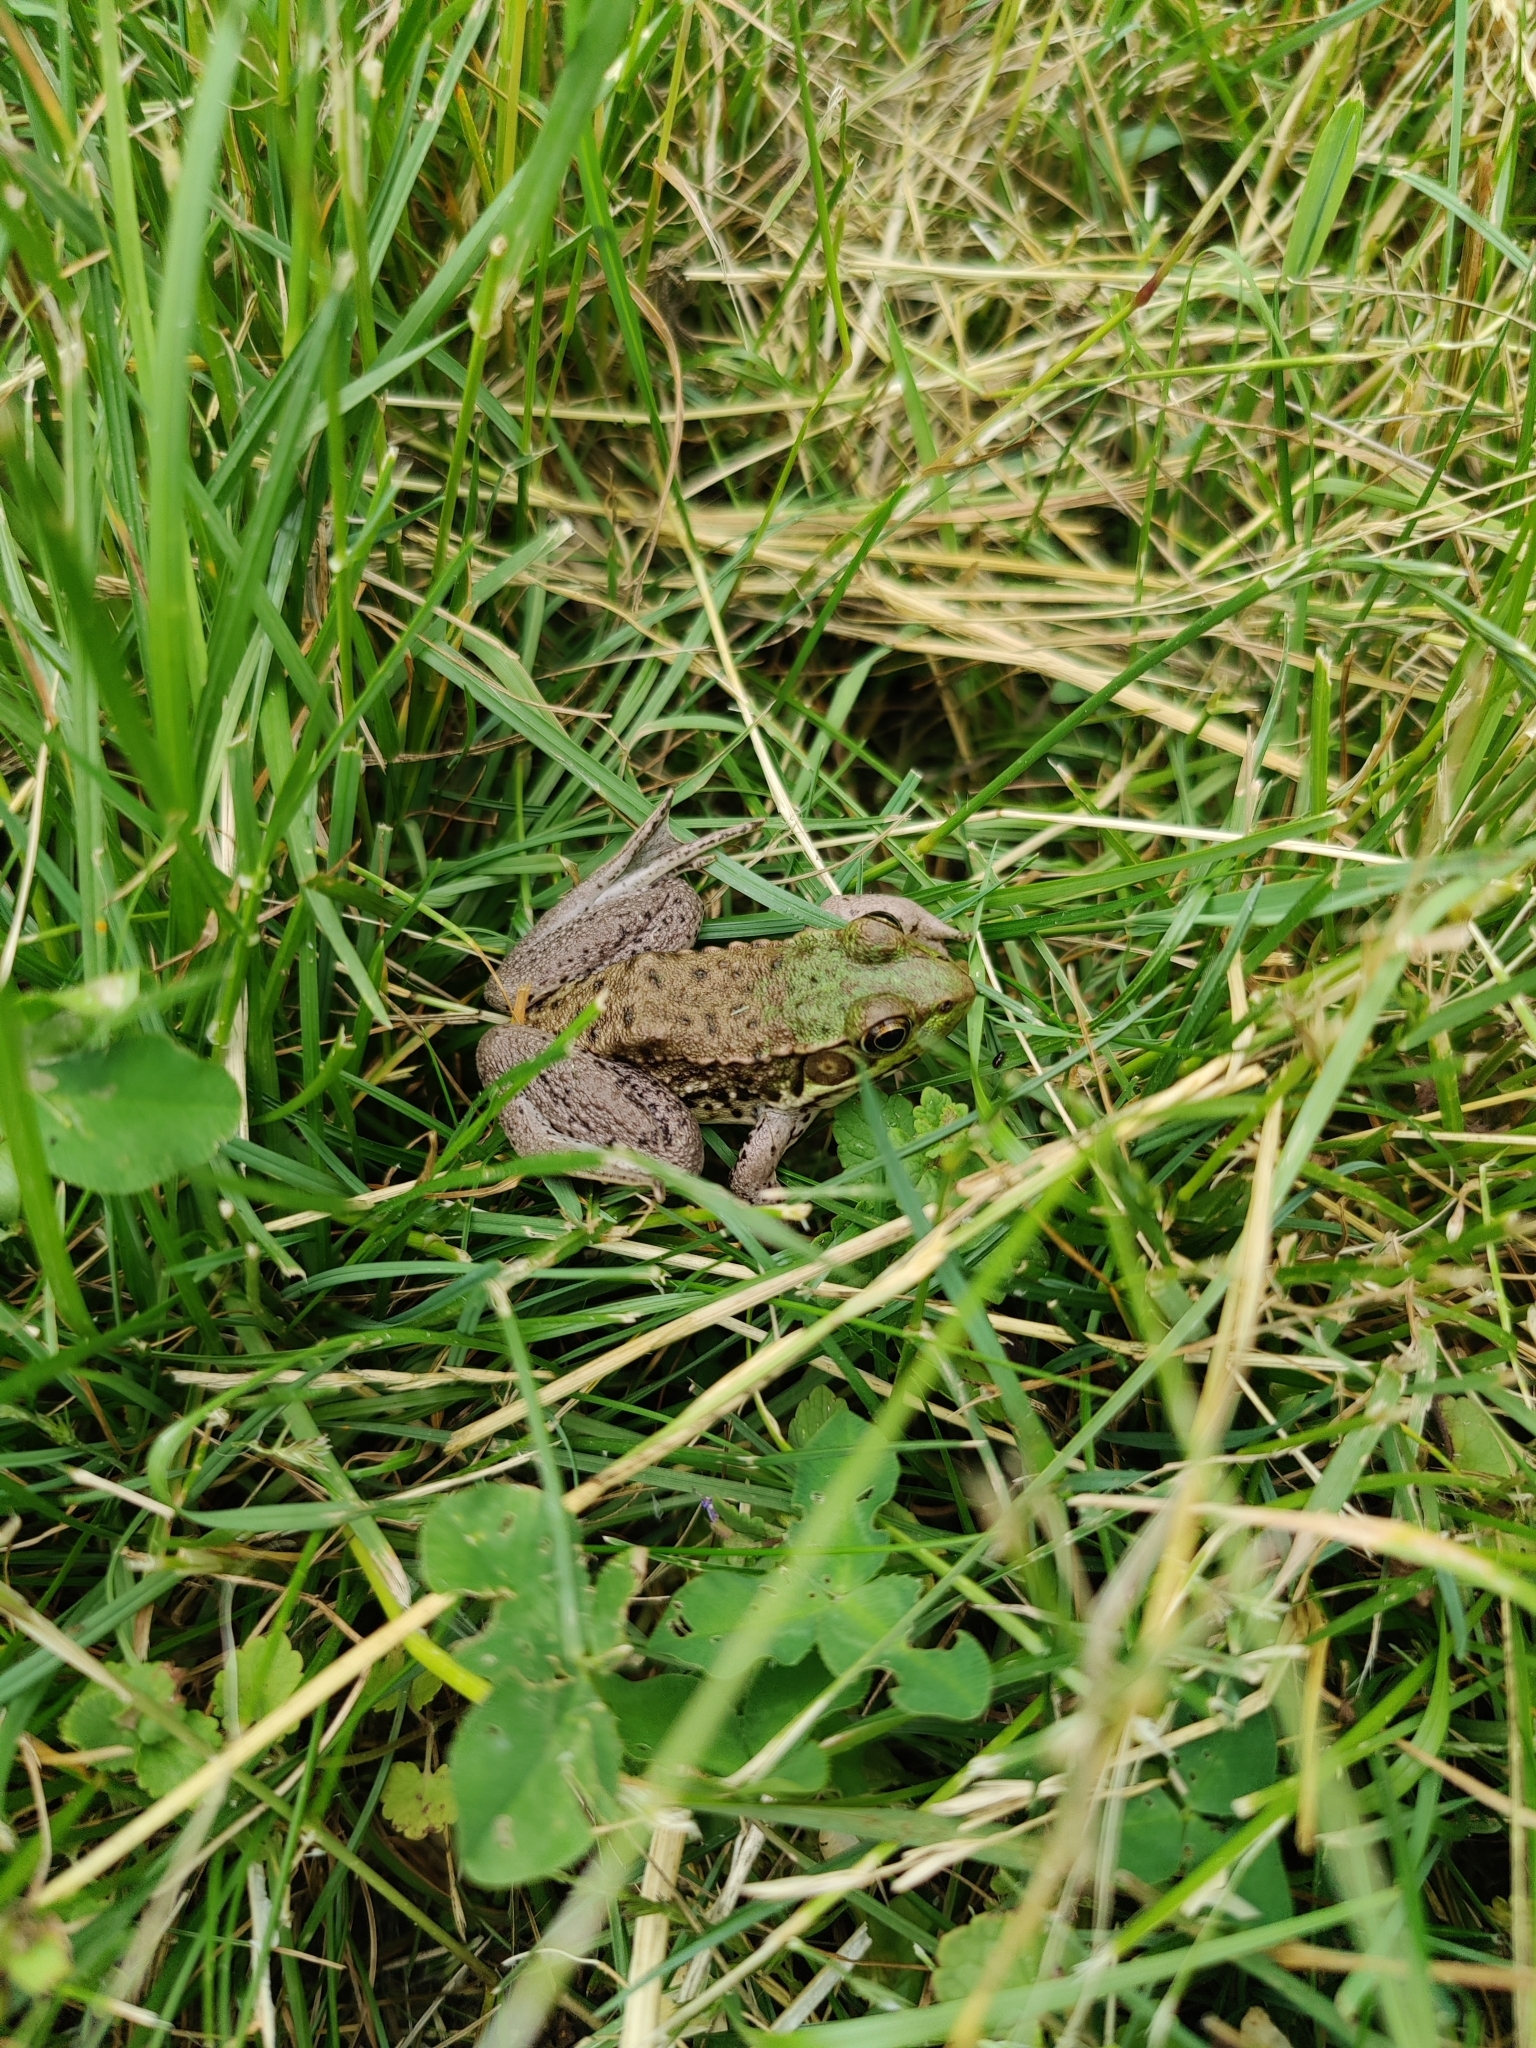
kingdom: Animalia
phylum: Chordata
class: Amphibia
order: Anura
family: Ranidae
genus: Lithobates
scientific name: Lithobates clamitans
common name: Green frog
